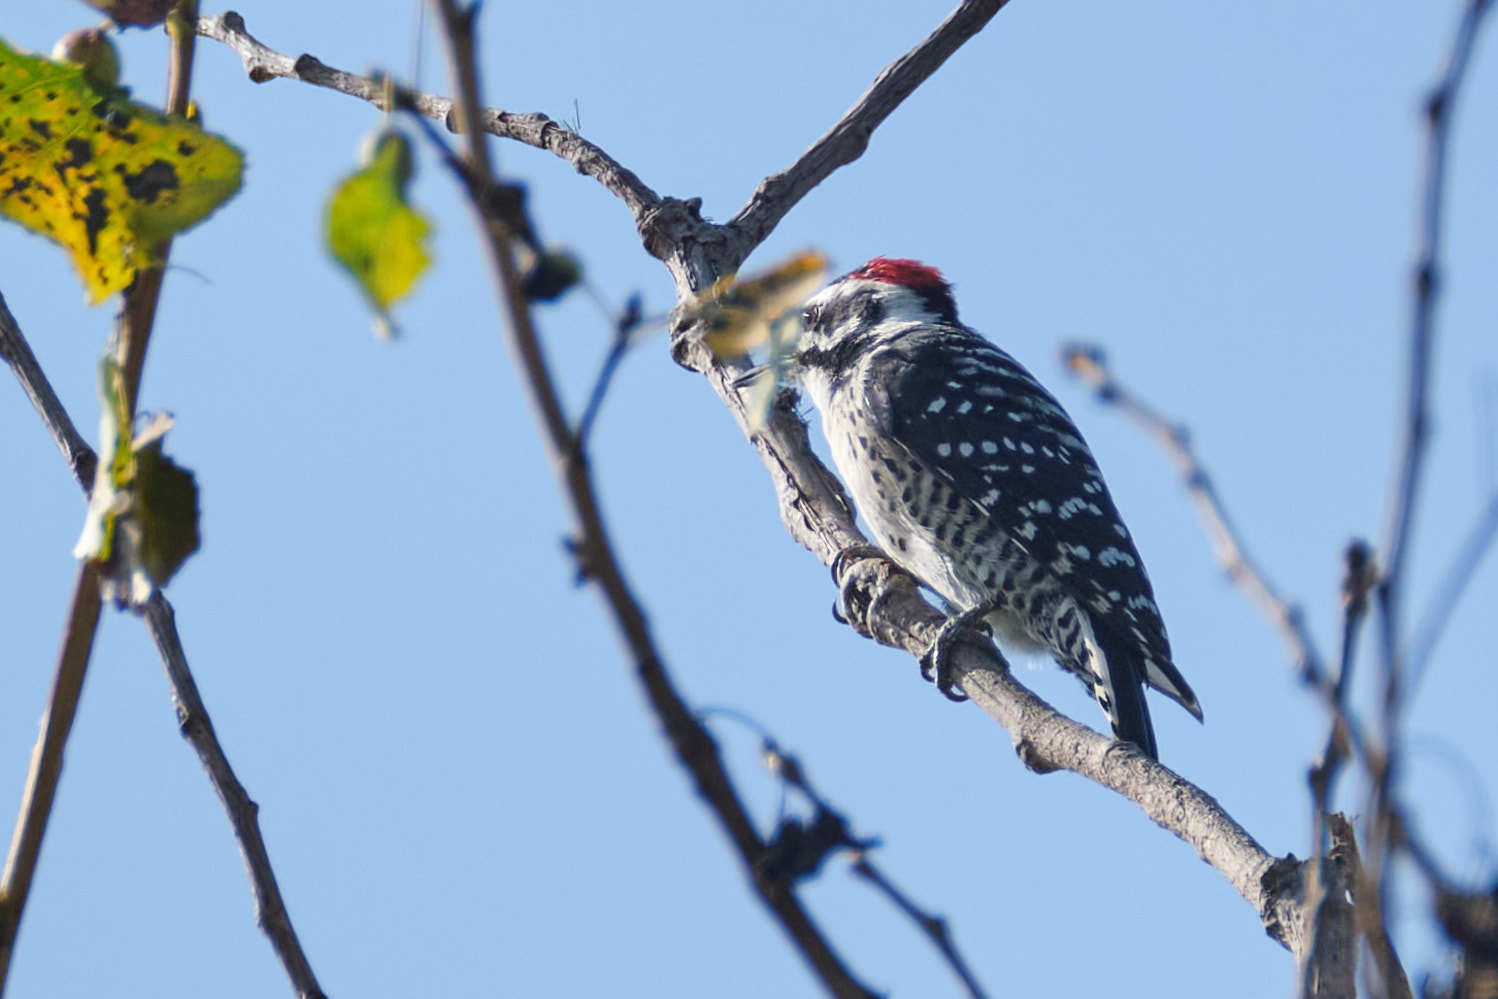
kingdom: Animalia
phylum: Chordata
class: Aves
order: Piciformes
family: Picidae
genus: Dryobates
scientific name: Dryobates nuttallii
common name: Nuttall's woodpecker
